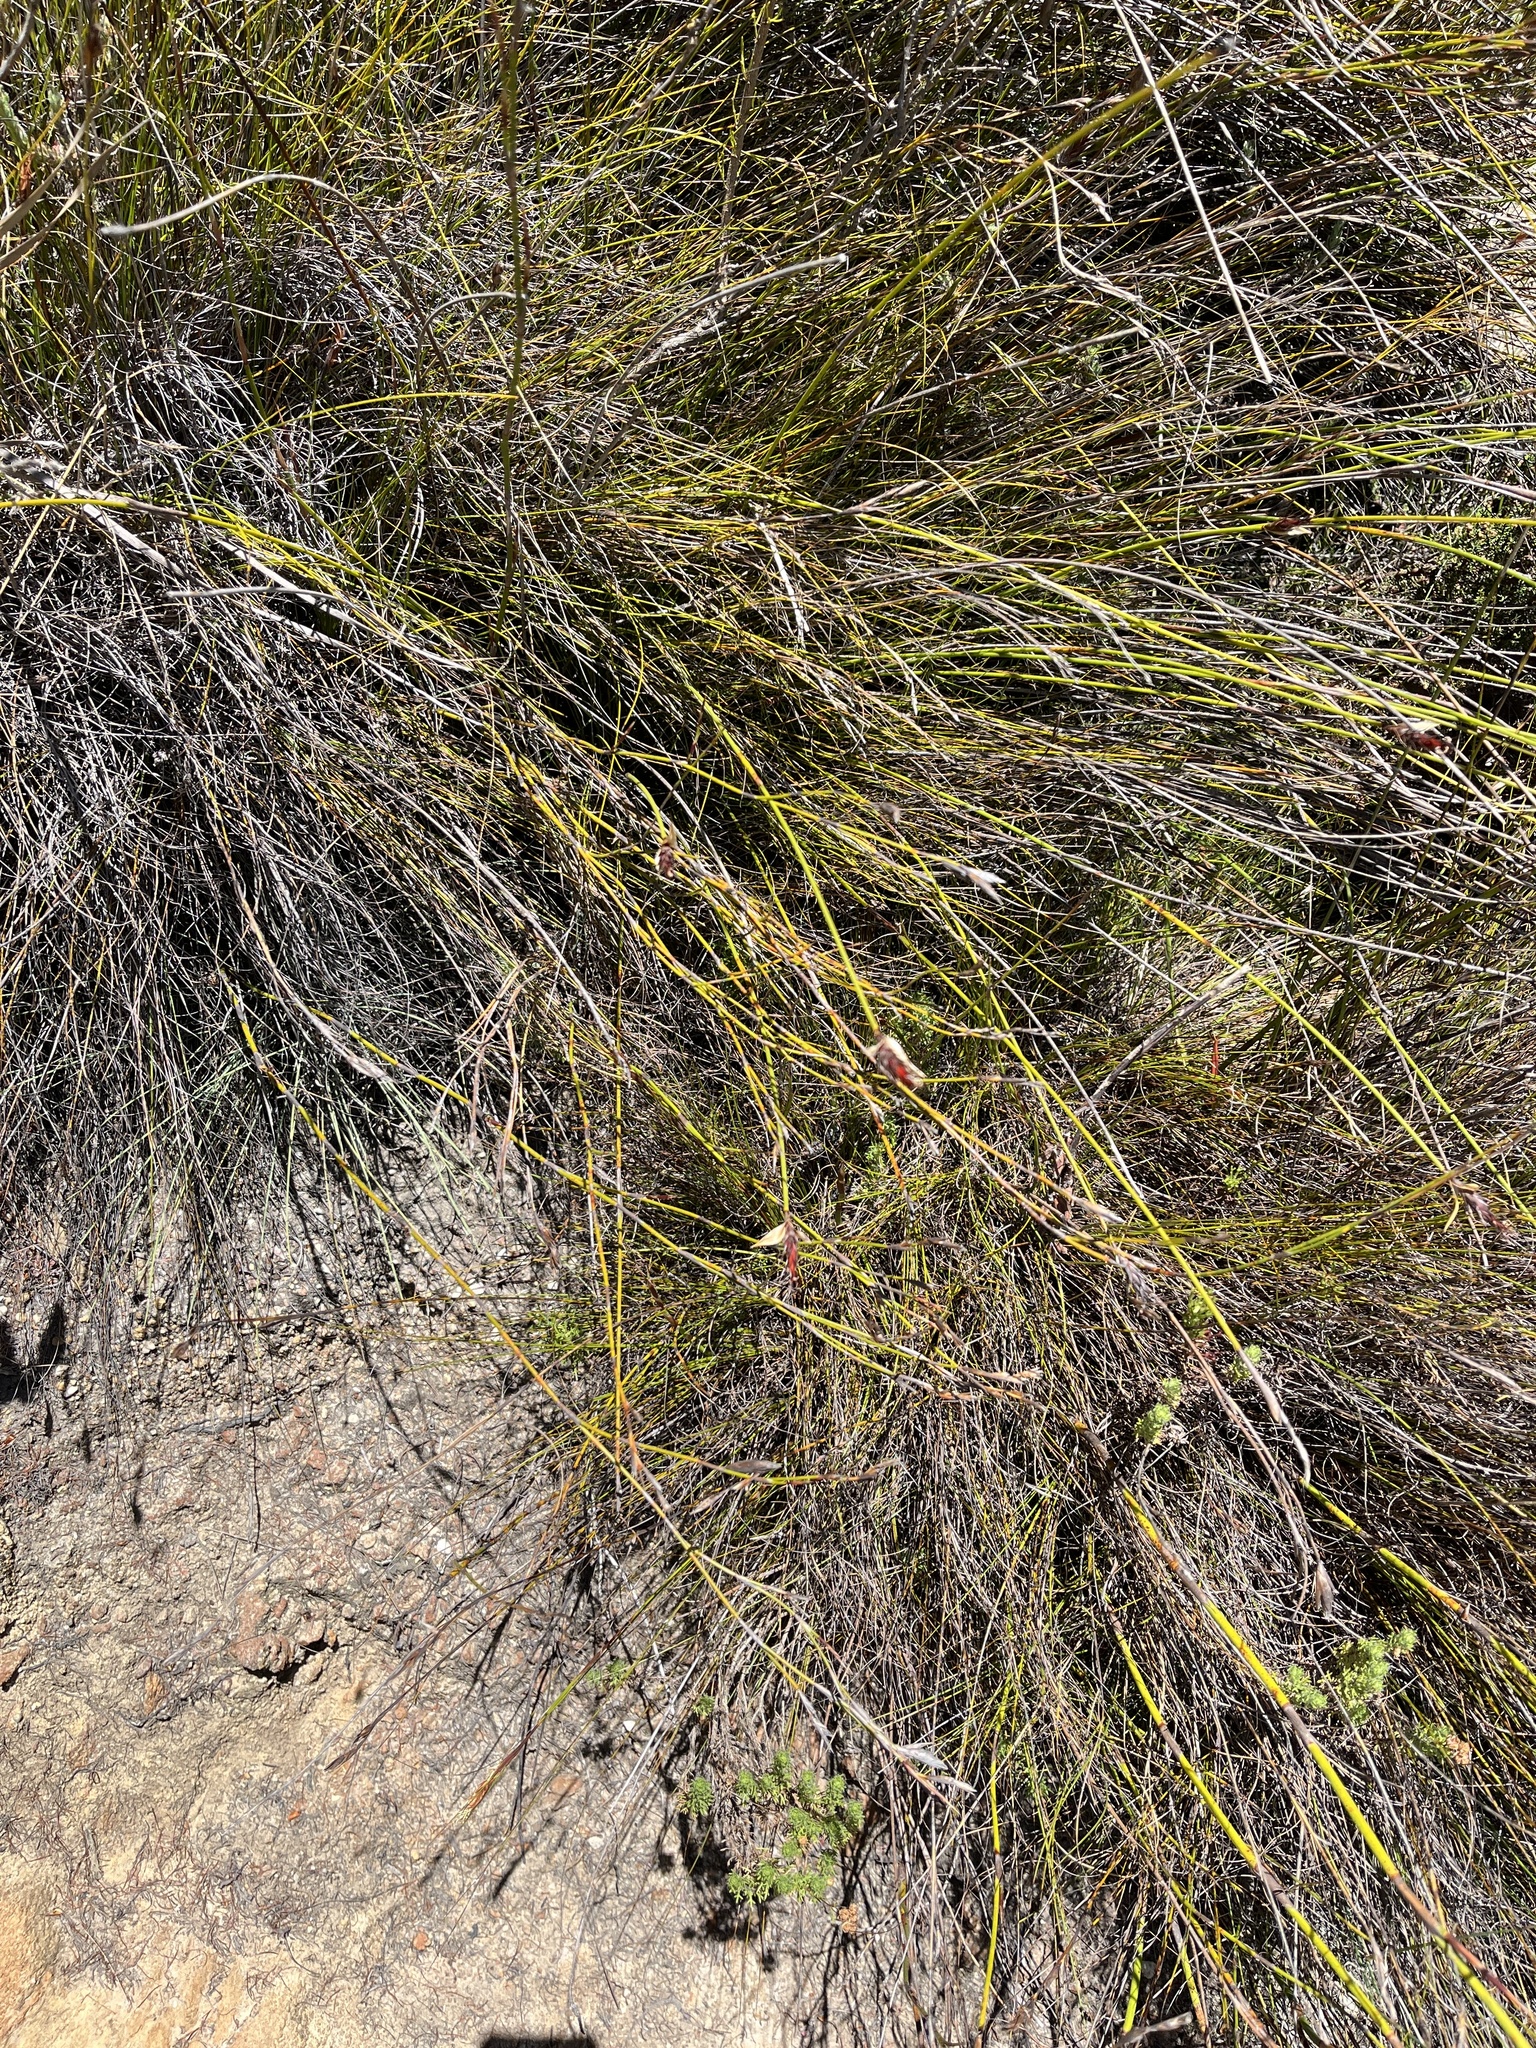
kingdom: Plantae
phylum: Tracheophyta
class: Liliopsida
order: Poales
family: Restionaceae
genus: Hypodiscus
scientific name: Hypodiscus aristatus
